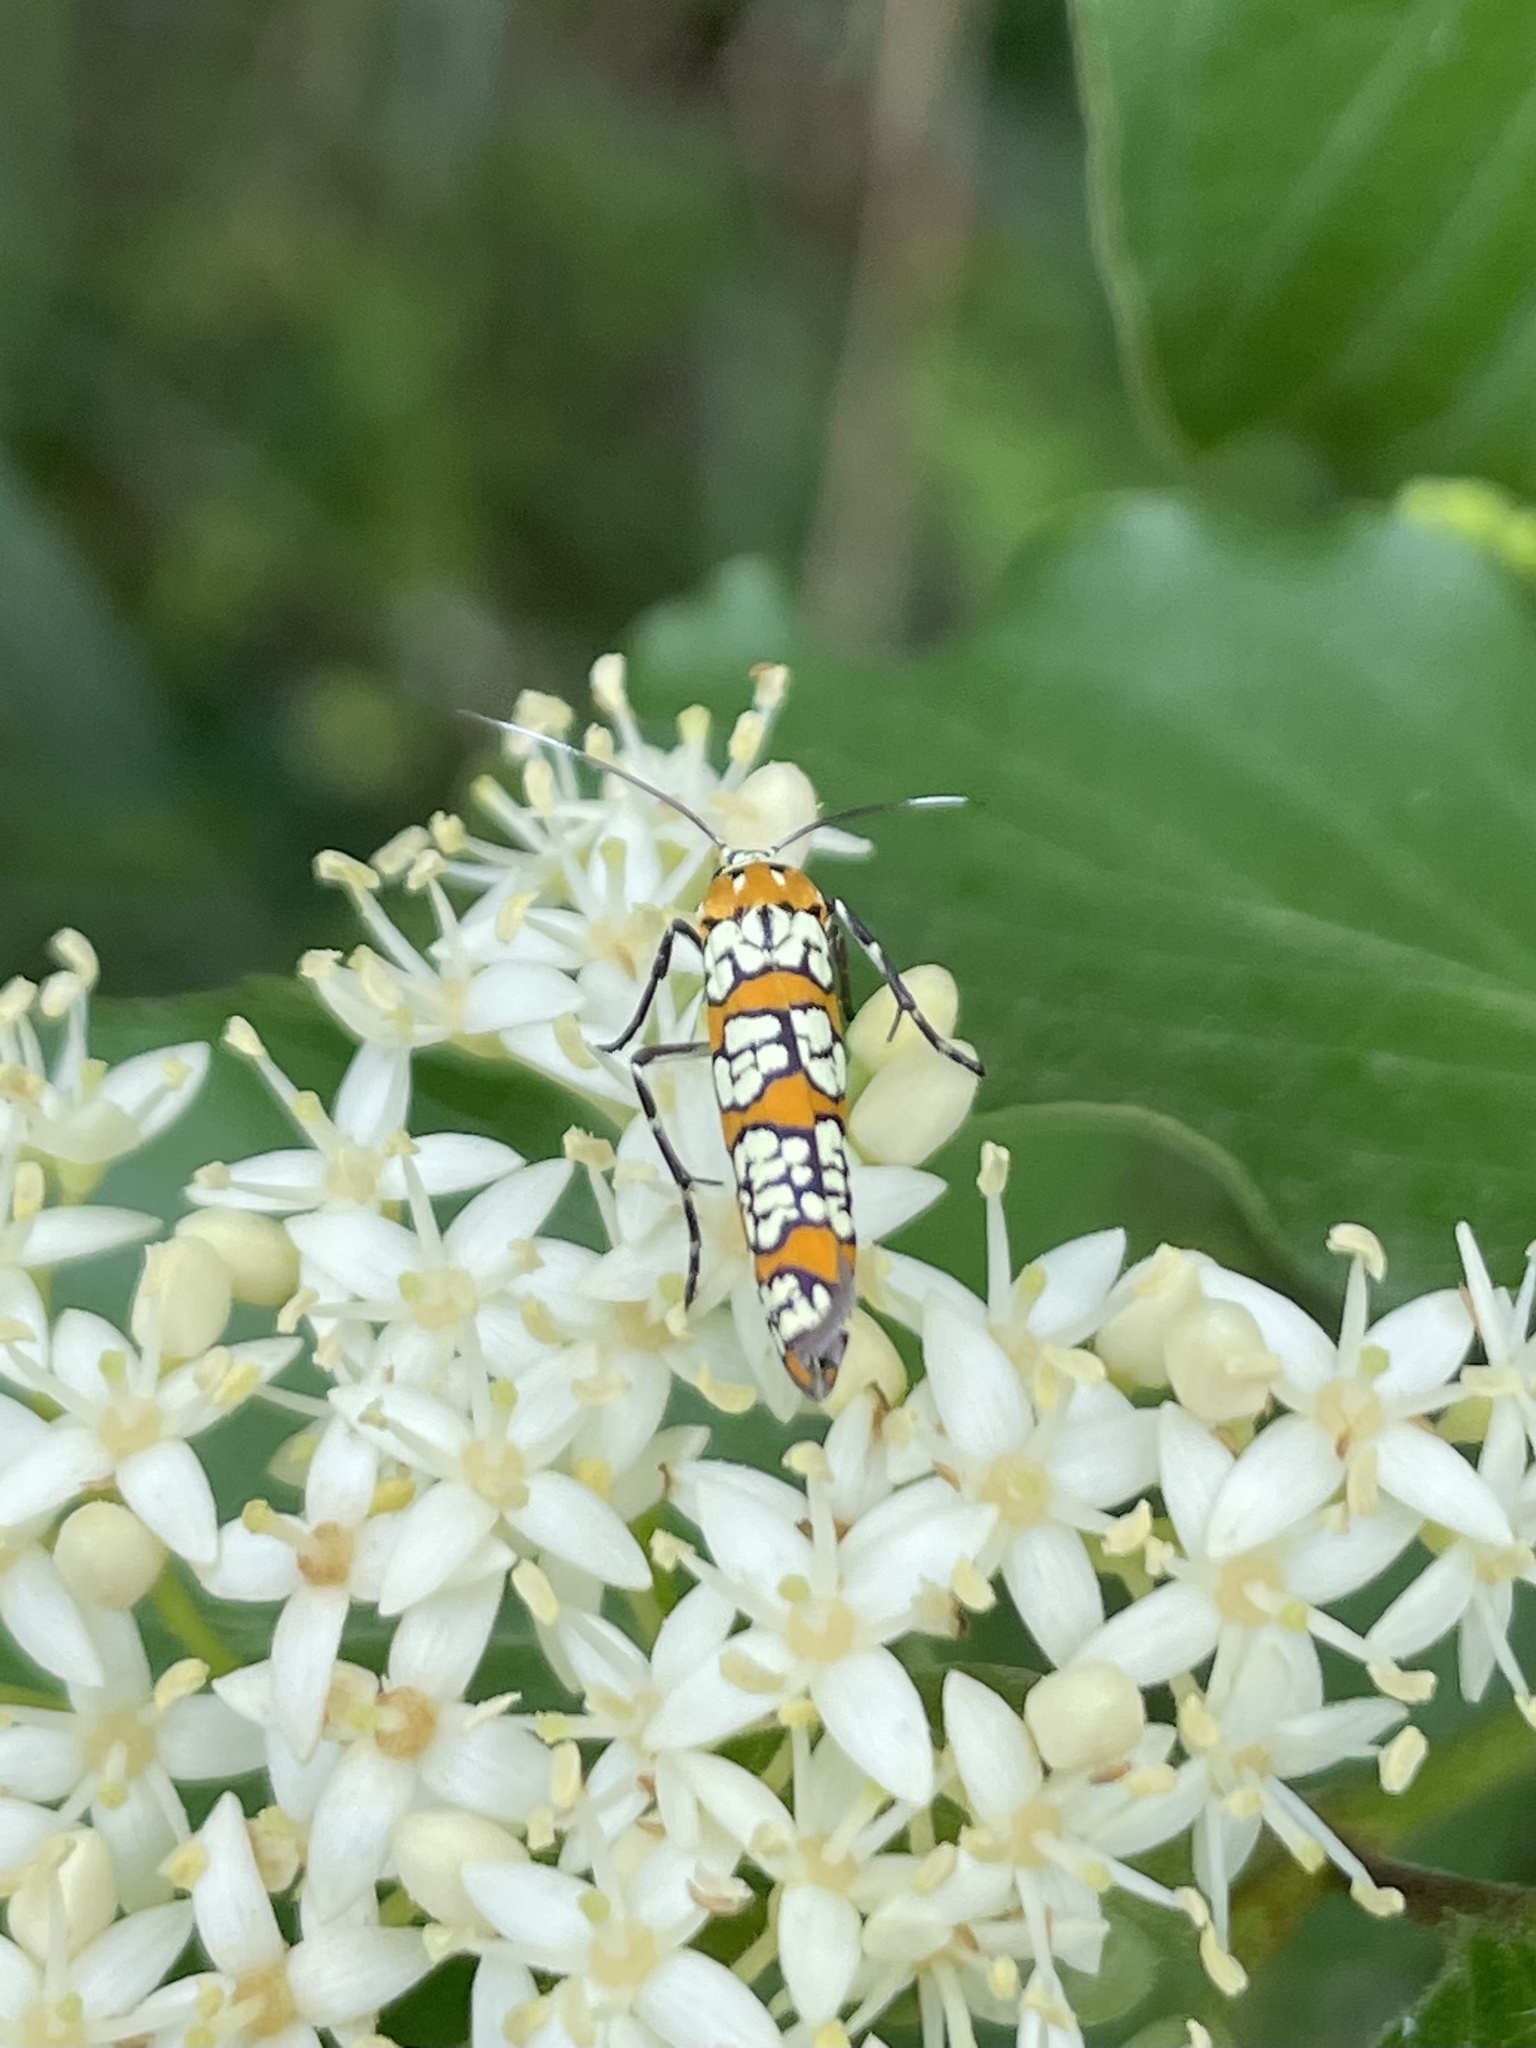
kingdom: Animalia
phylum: Arthropoda
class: Insecta
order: Lepidoptera
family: Attevidae
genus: Atteva
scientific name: Atteva punctella
